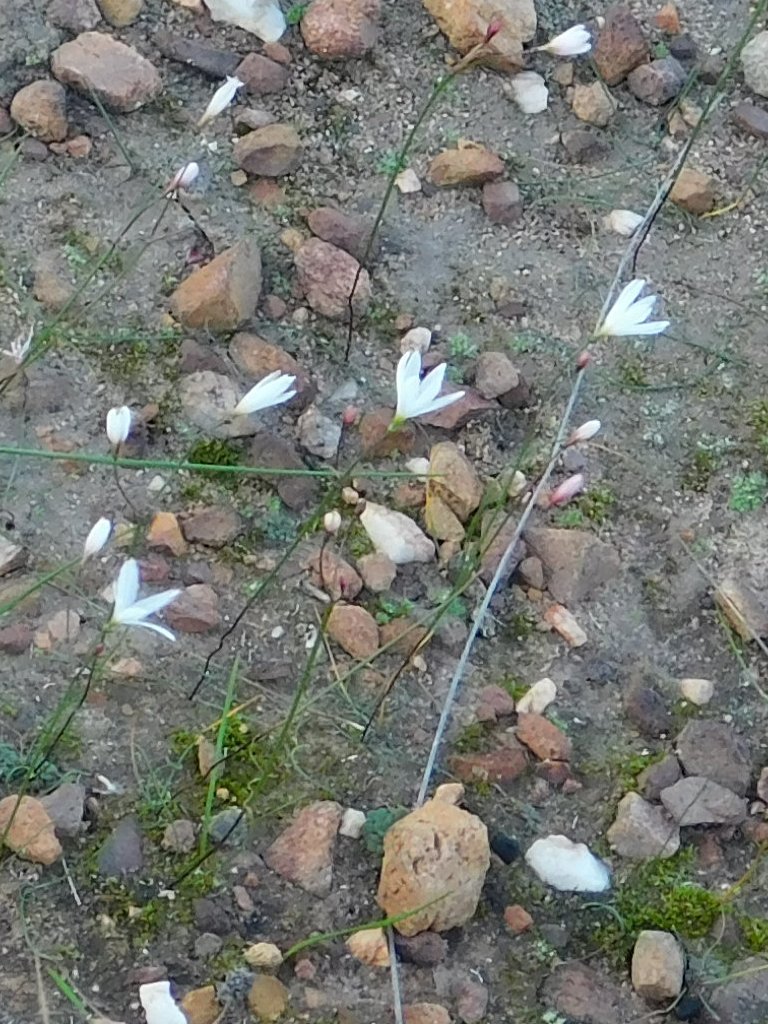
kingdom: Plantae
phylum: Tracheophyta
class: Liliopsida
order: Asparagales
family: Amaryllidaceae
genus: Strumaria
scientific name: Strumaria spiralis
